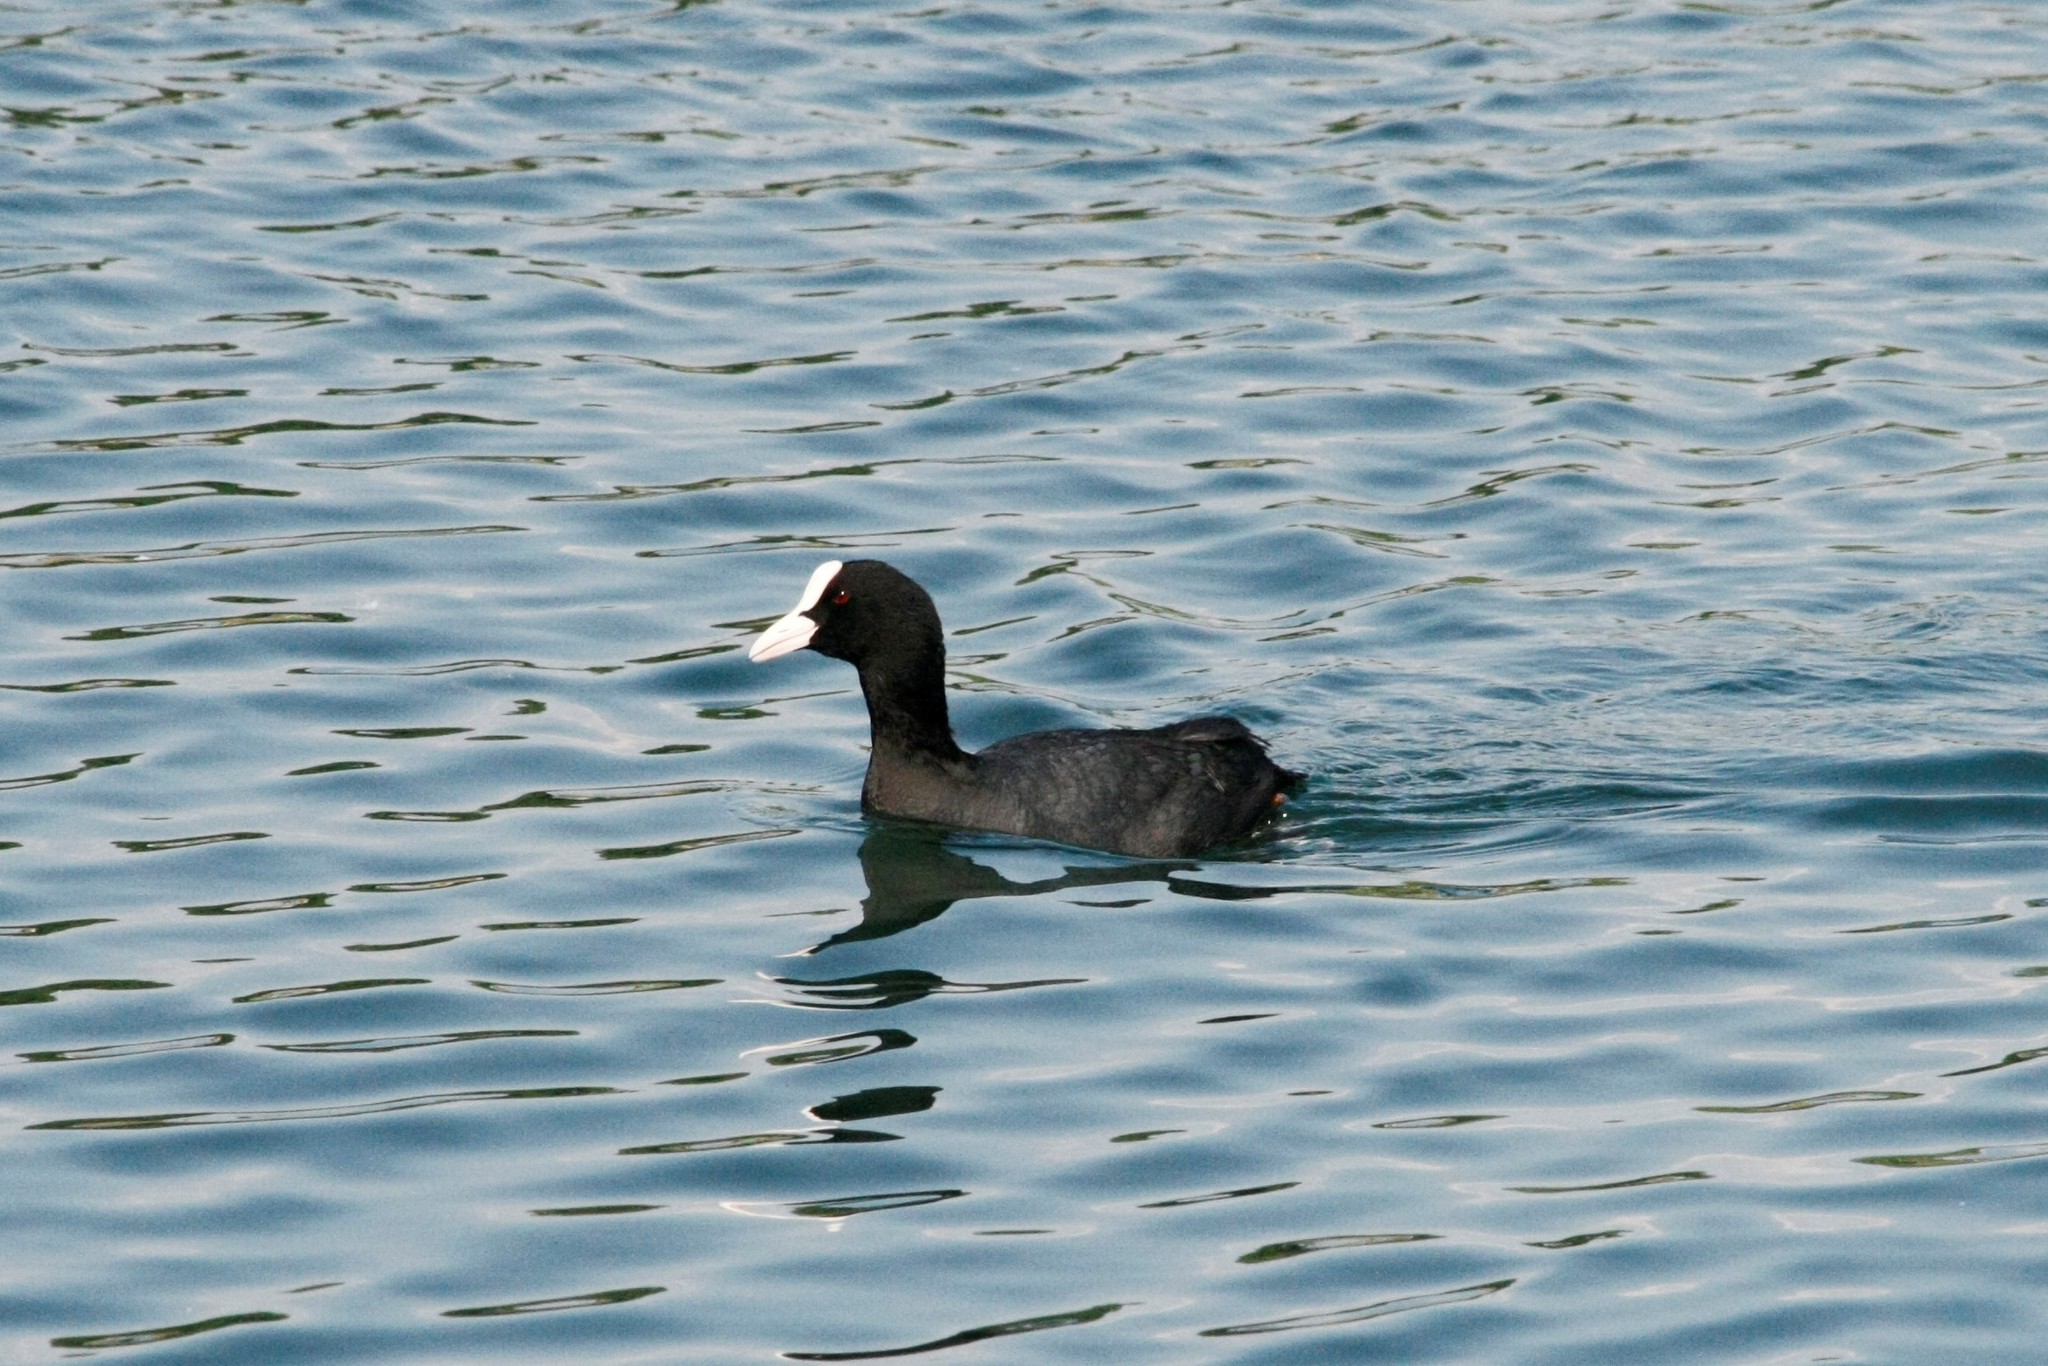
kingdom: Animalia
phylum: Chordata
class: Aves
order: Gruiformes
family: Rallidae
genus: Fulica
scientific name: Fulica atra
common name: Eurasian coot
